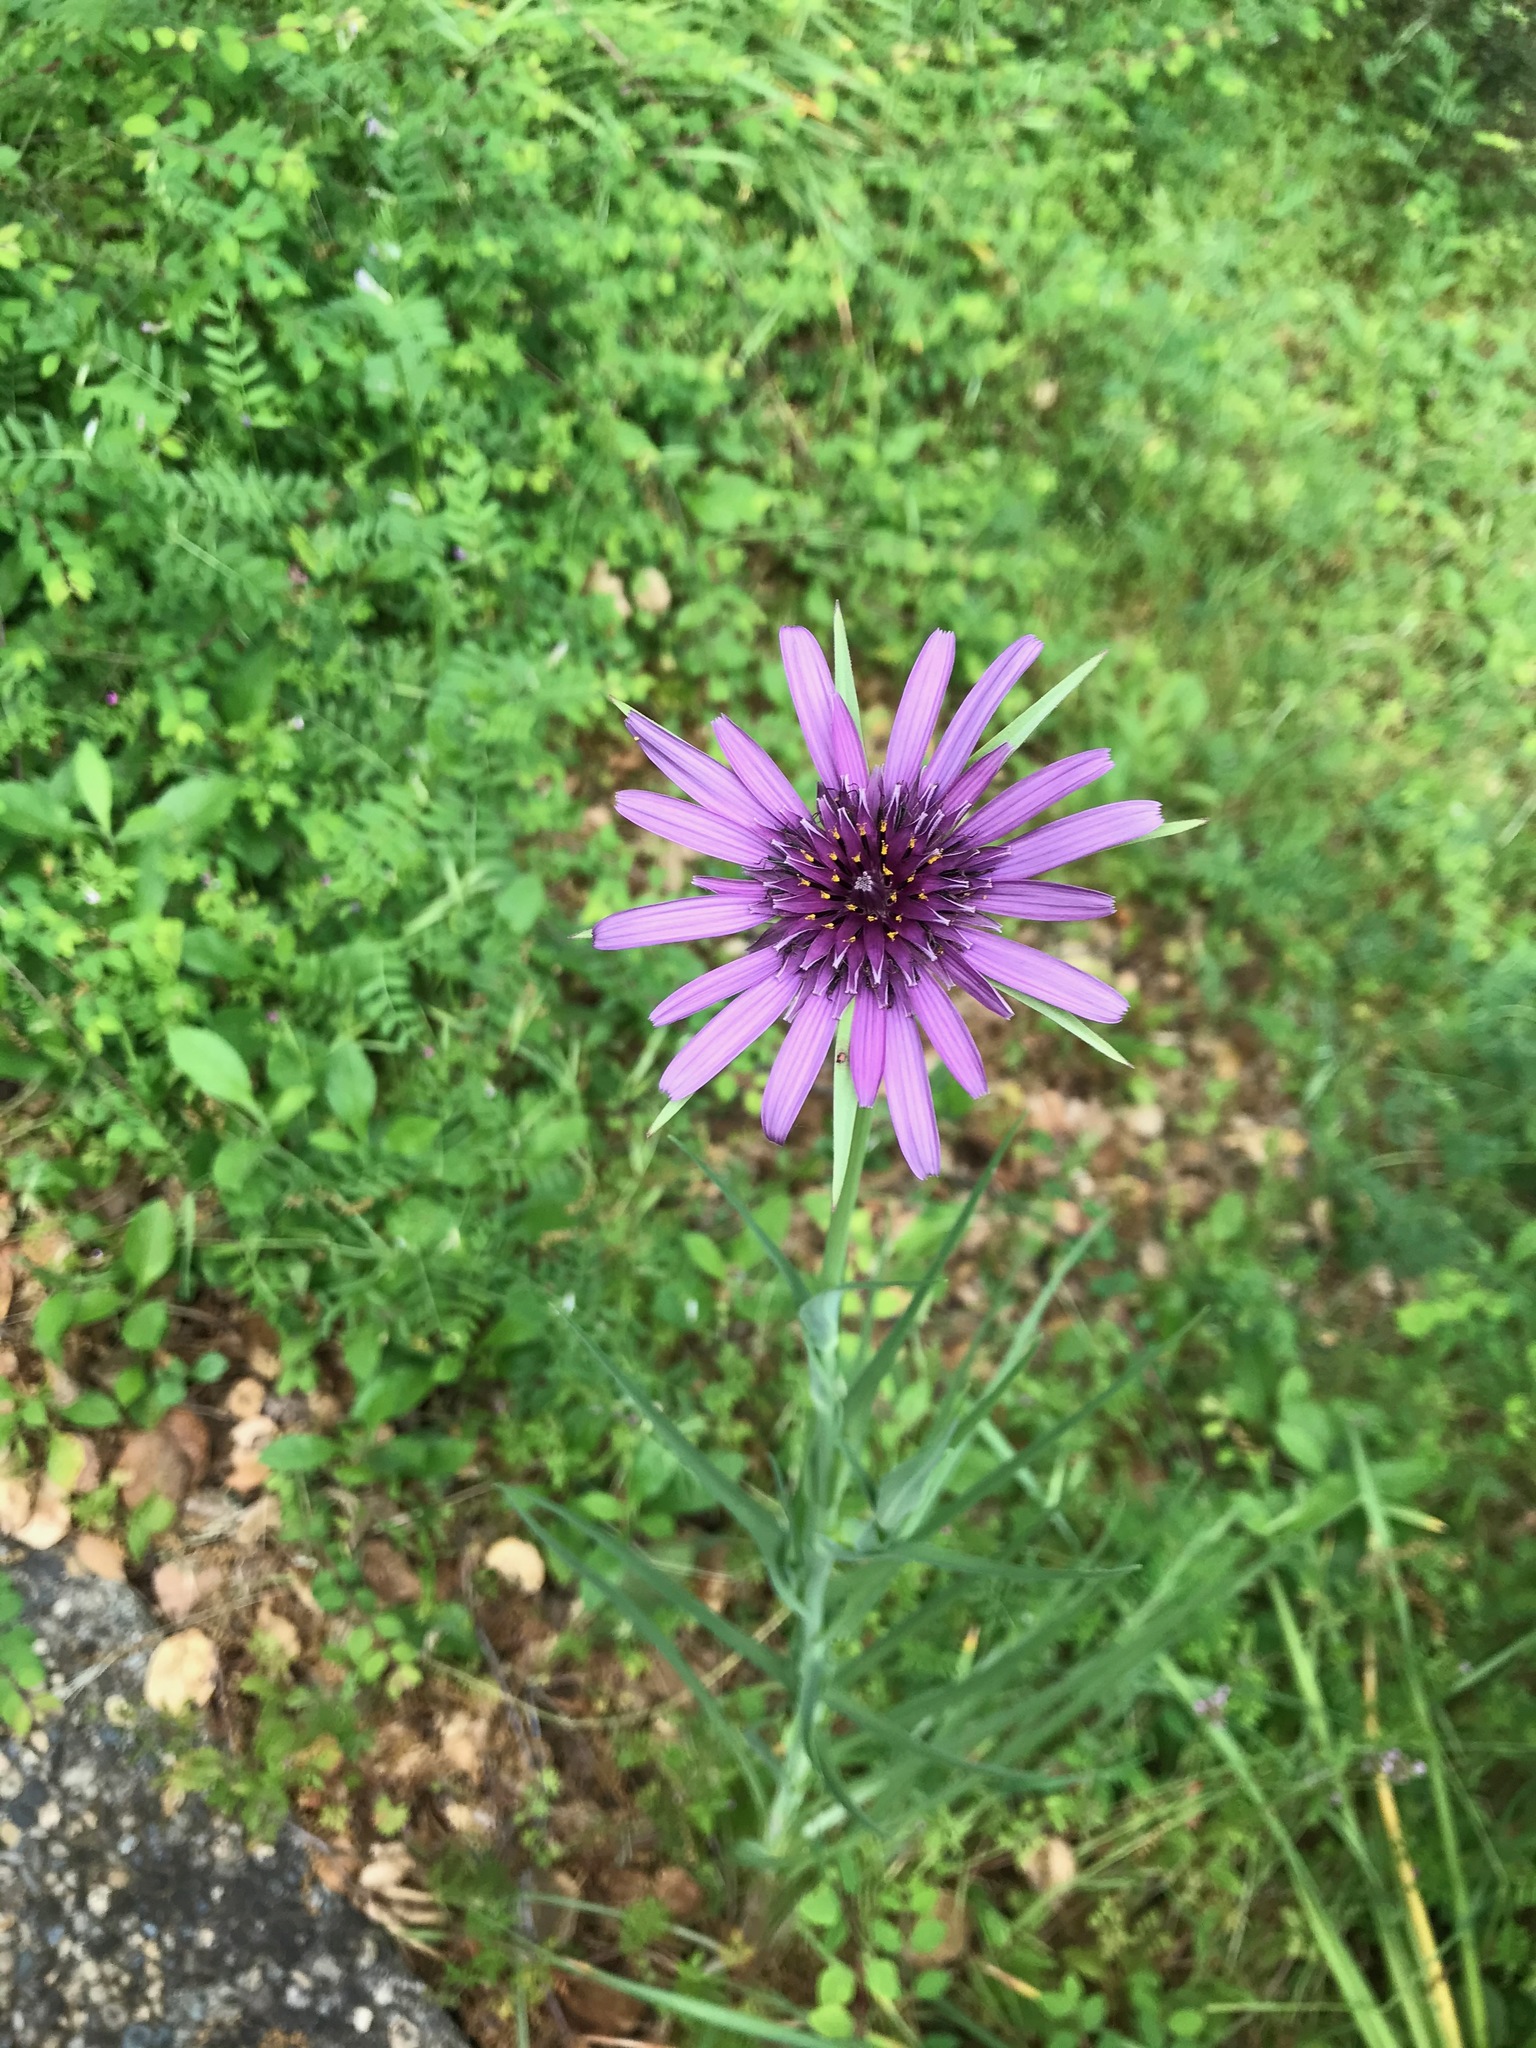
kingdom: Plantae
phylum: Tracheophyta
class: Magnoliopsida
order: Asterales
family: Asteraceae
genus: Tragopogon
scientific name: Tragopogon porrifolius
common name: Salsify
